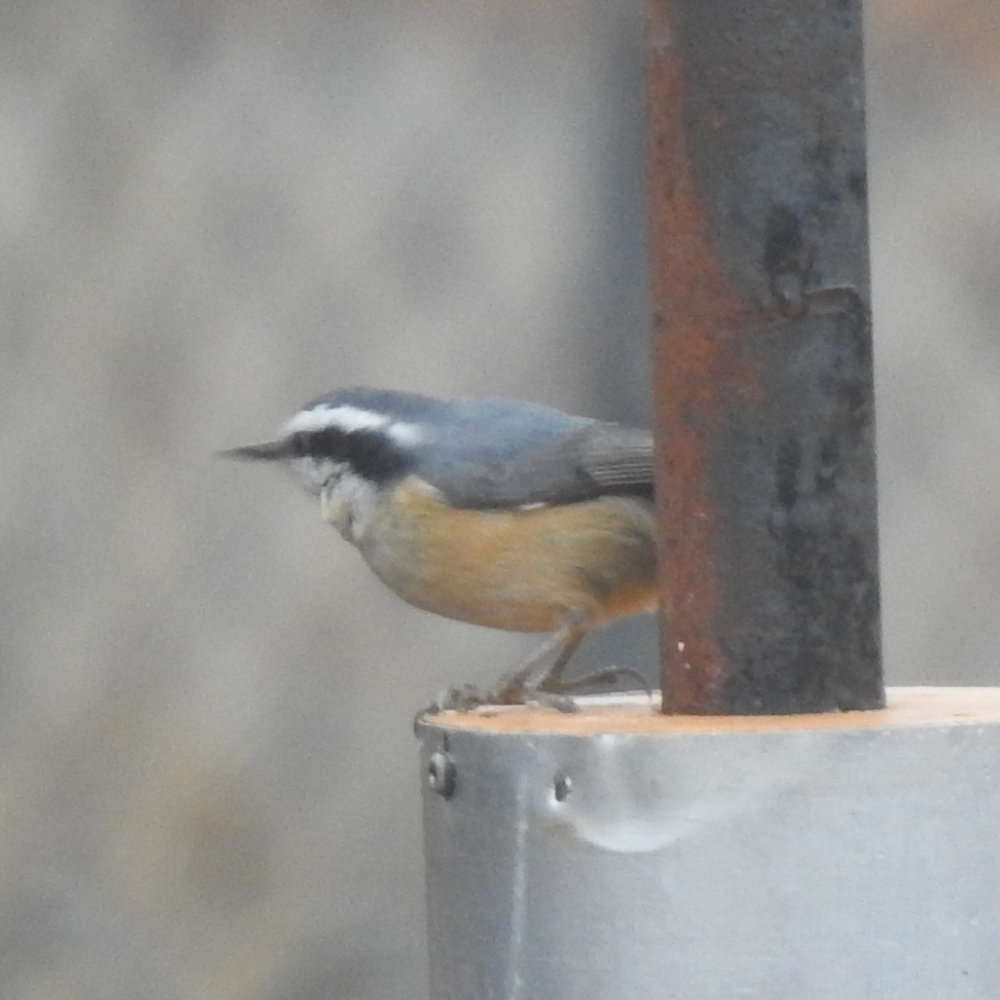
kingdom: Animalia
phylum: Chordata
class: Aves
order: Passeriformes
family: Sittidae
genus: Sitta
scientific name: Sitta canadensis
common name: Red-breasted nuthatch
